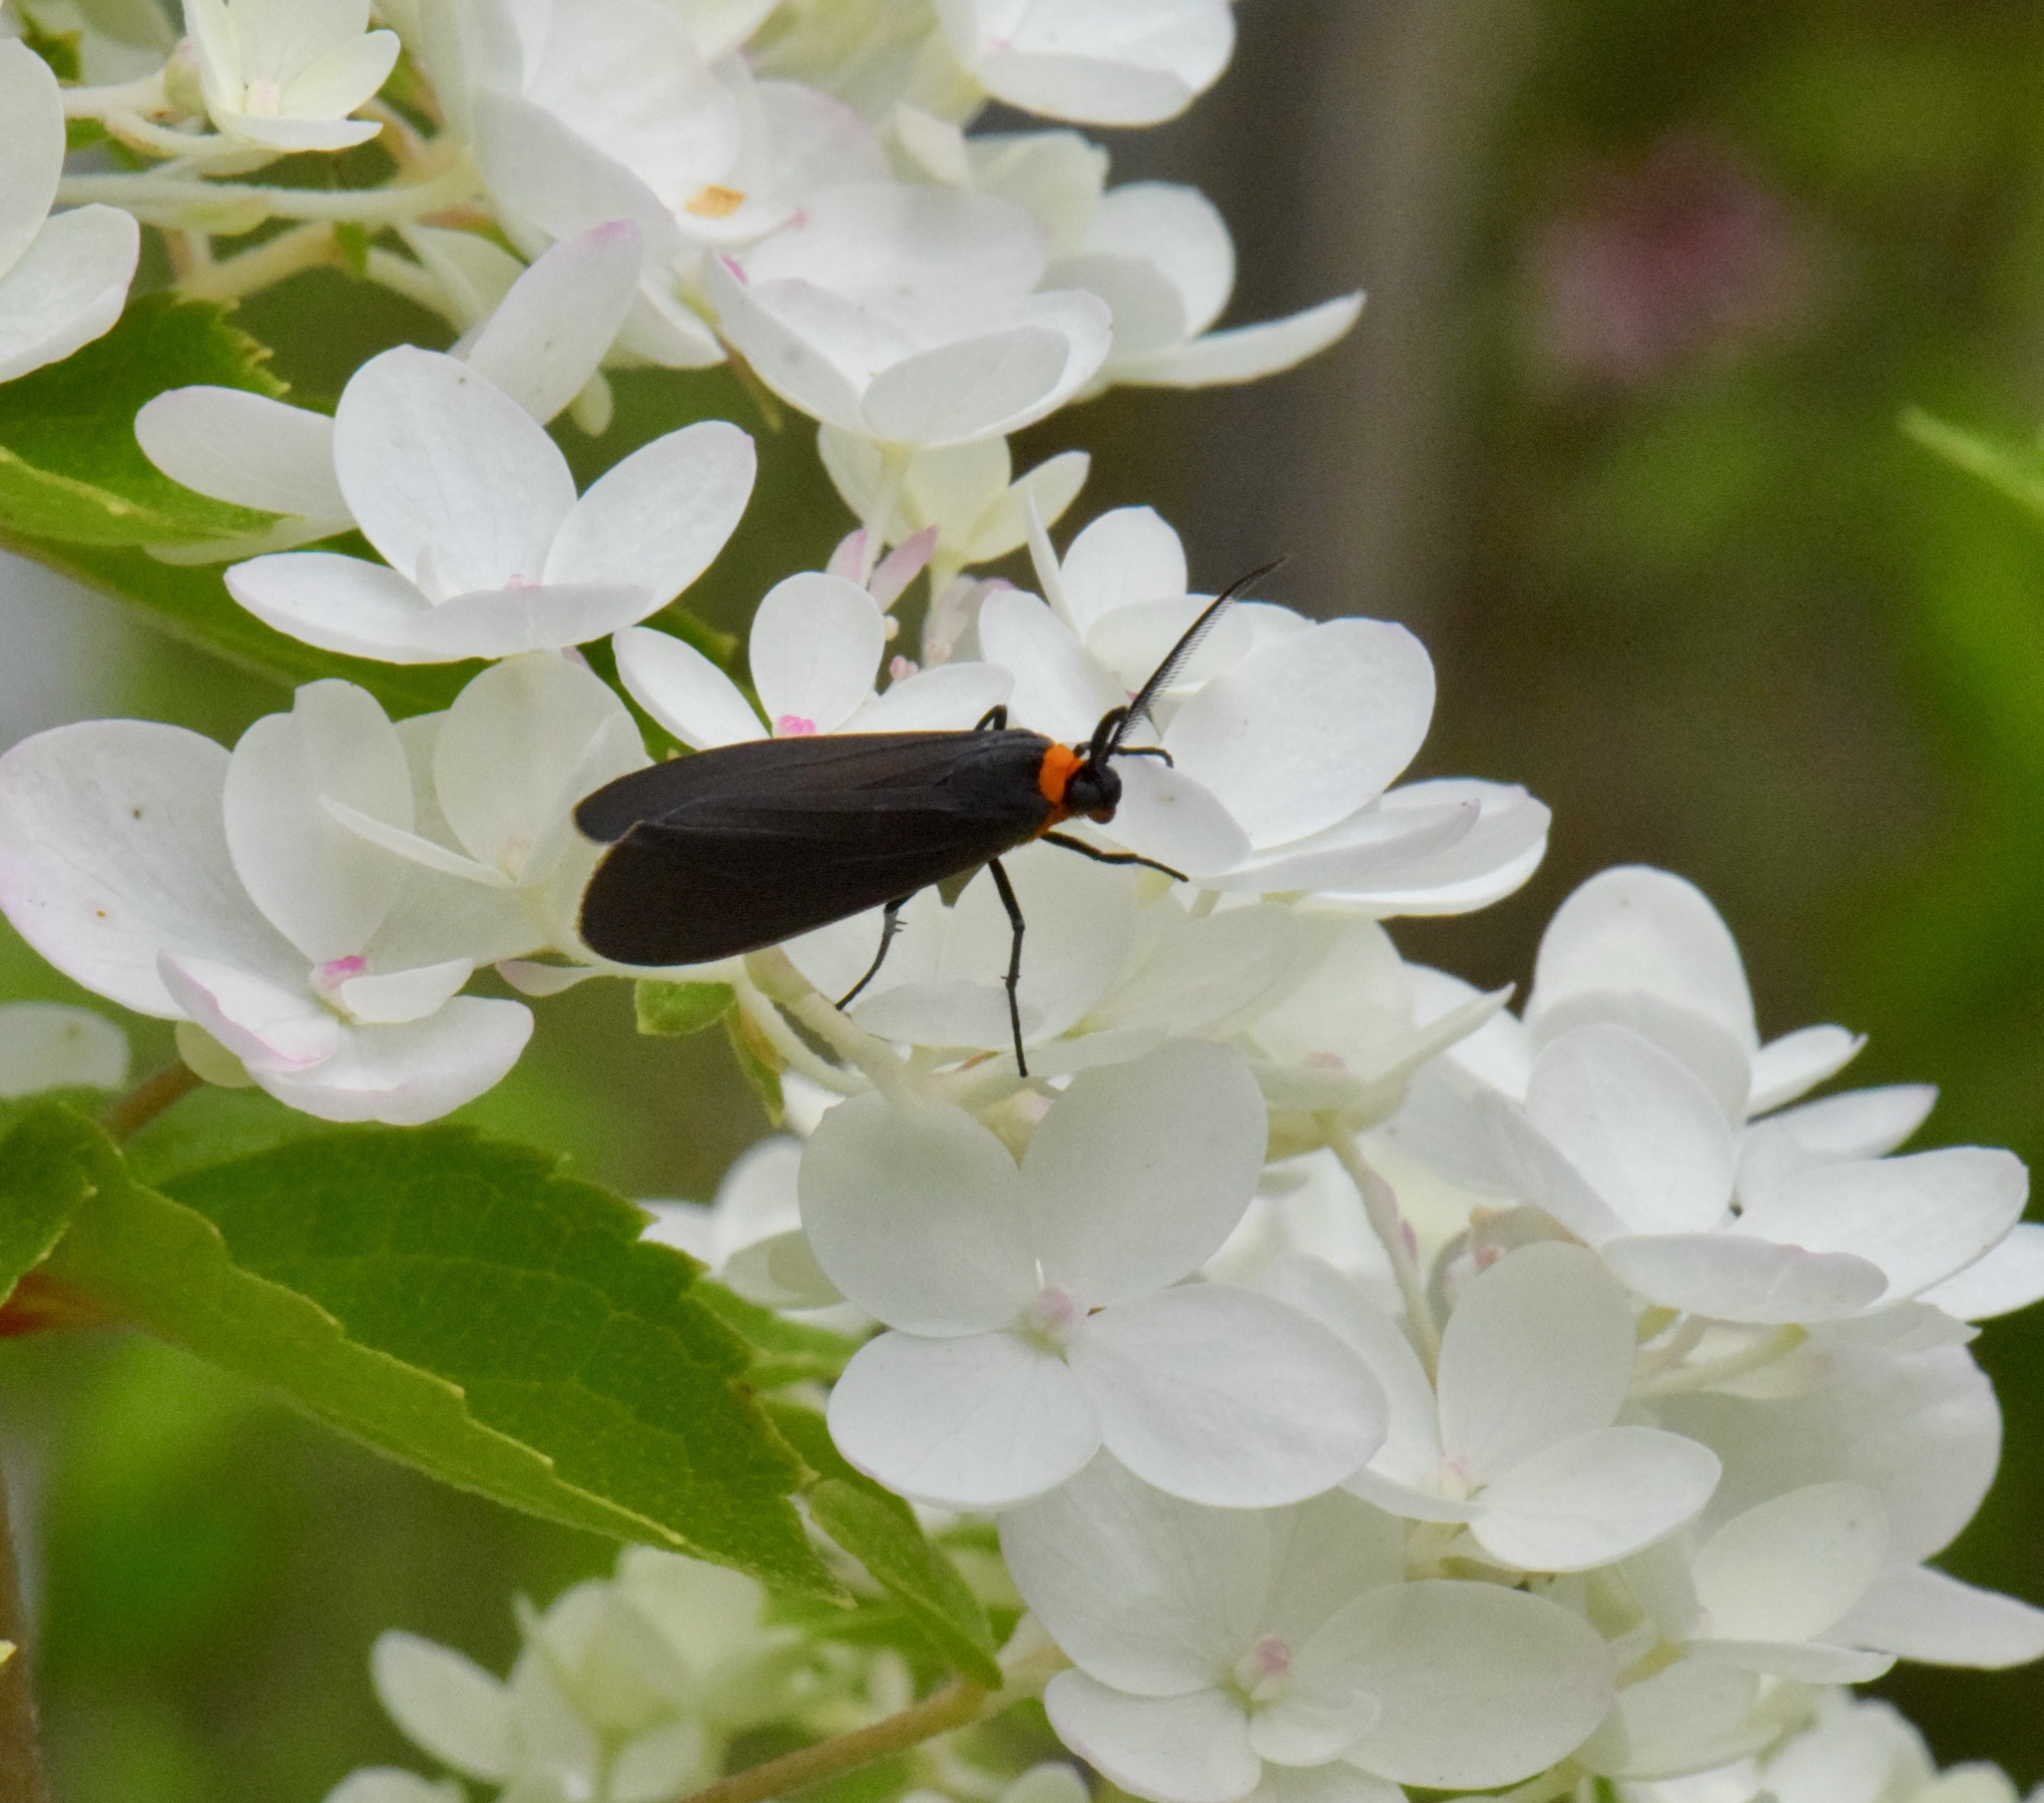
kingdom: Animalia
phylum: Arthropoda
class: Insecta
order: Lepidoptera
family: Erebidae
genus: Cisseps
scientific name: Cisseps fulvicollis
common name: Yellow-collared scape moth
